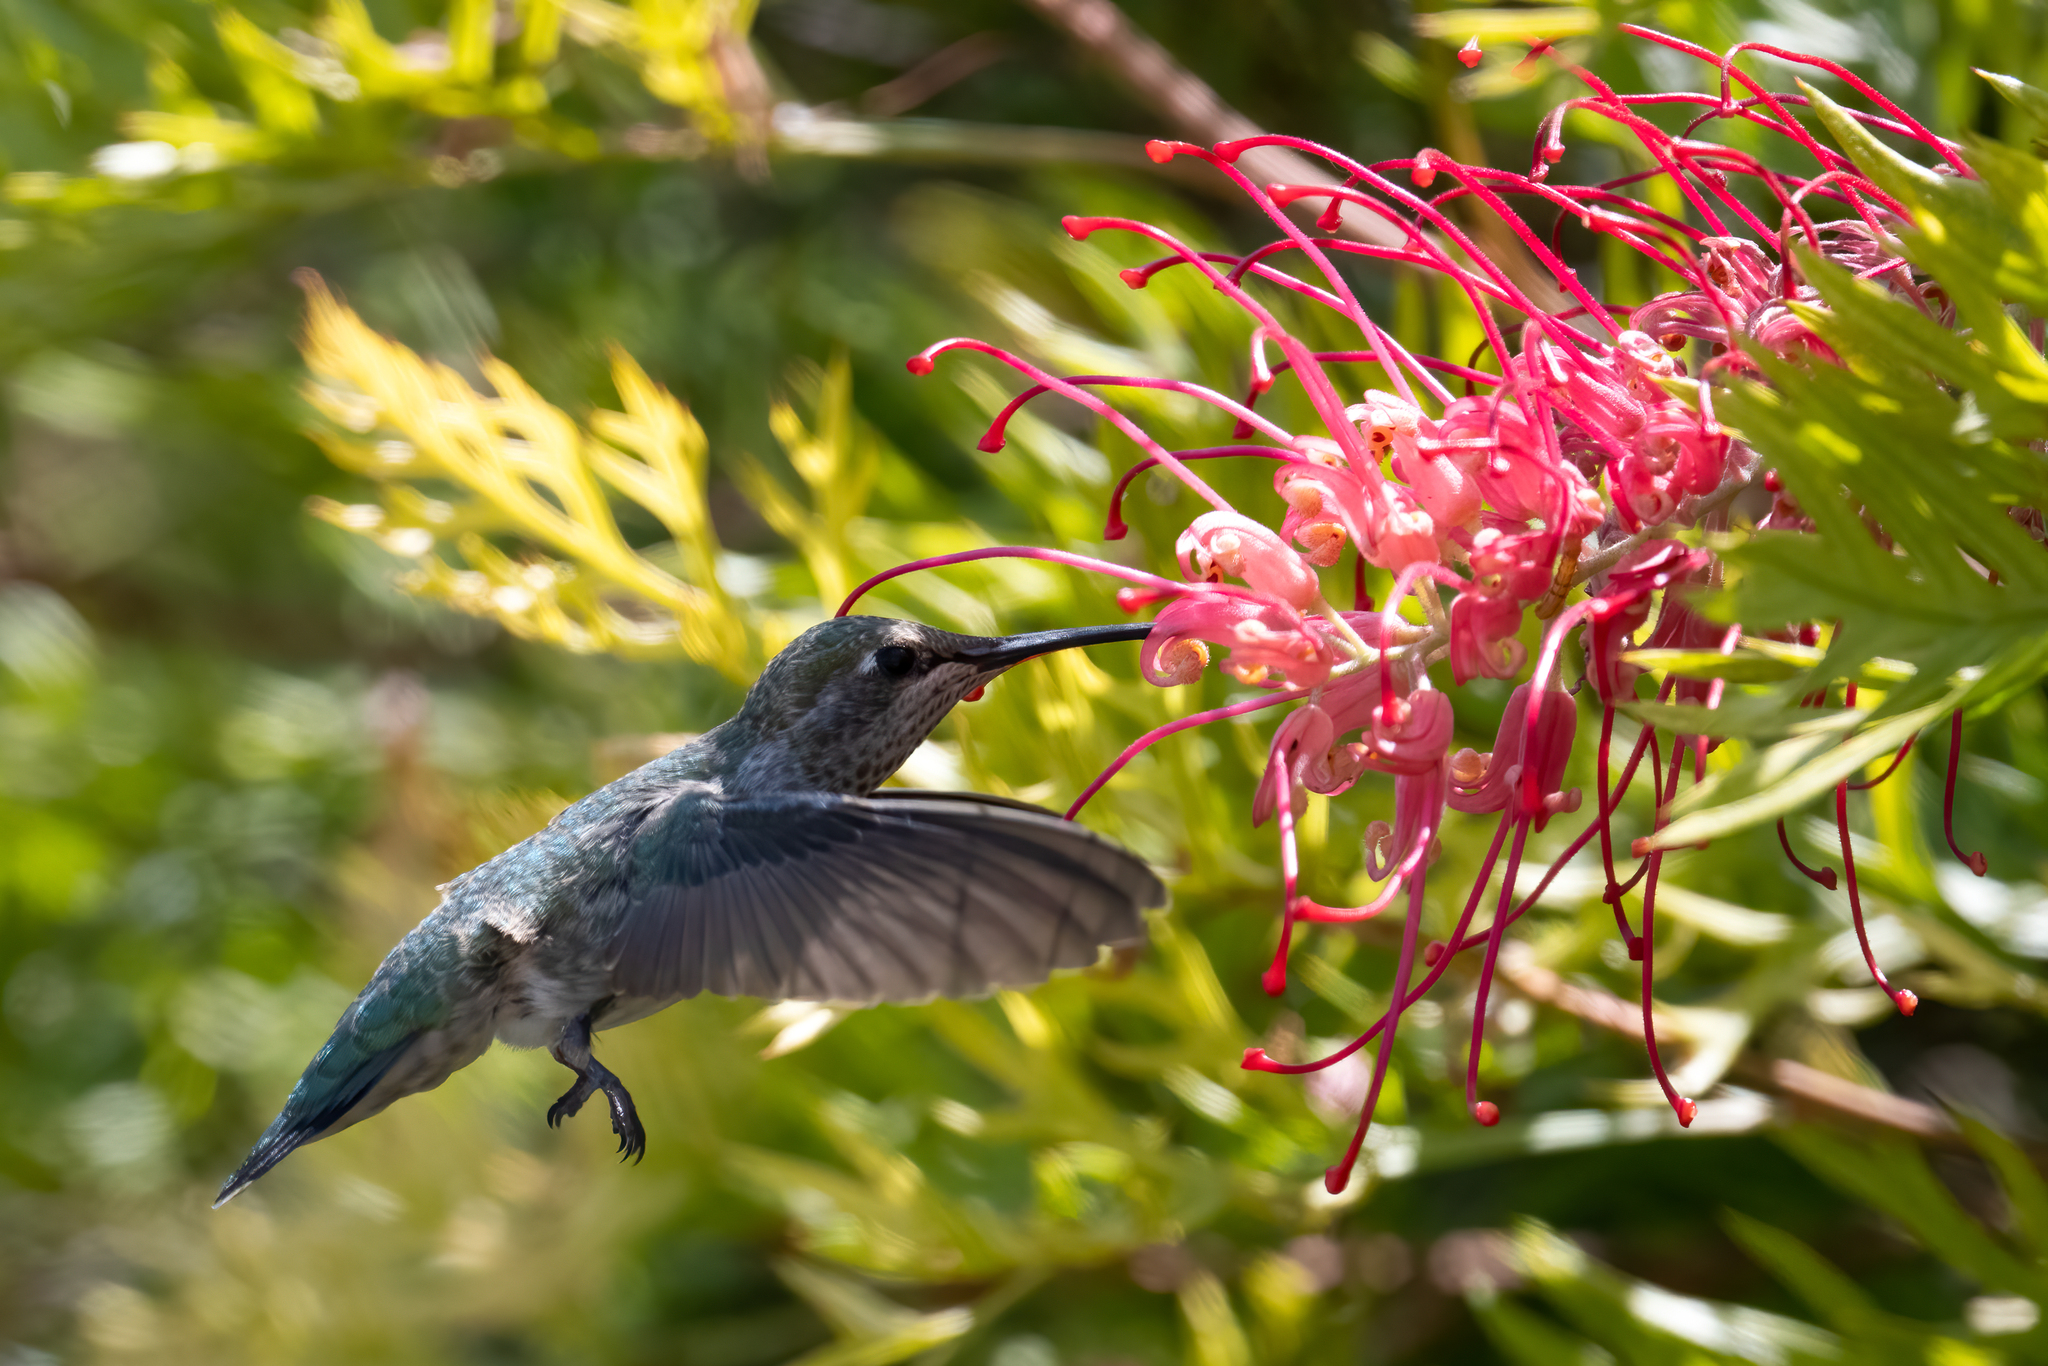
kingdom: Animalia
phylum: Chordata
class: Aves
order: Apodiformes
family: Trochilidae
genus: Calypte
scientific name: Calypte anna
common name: Anna's hummingbird
